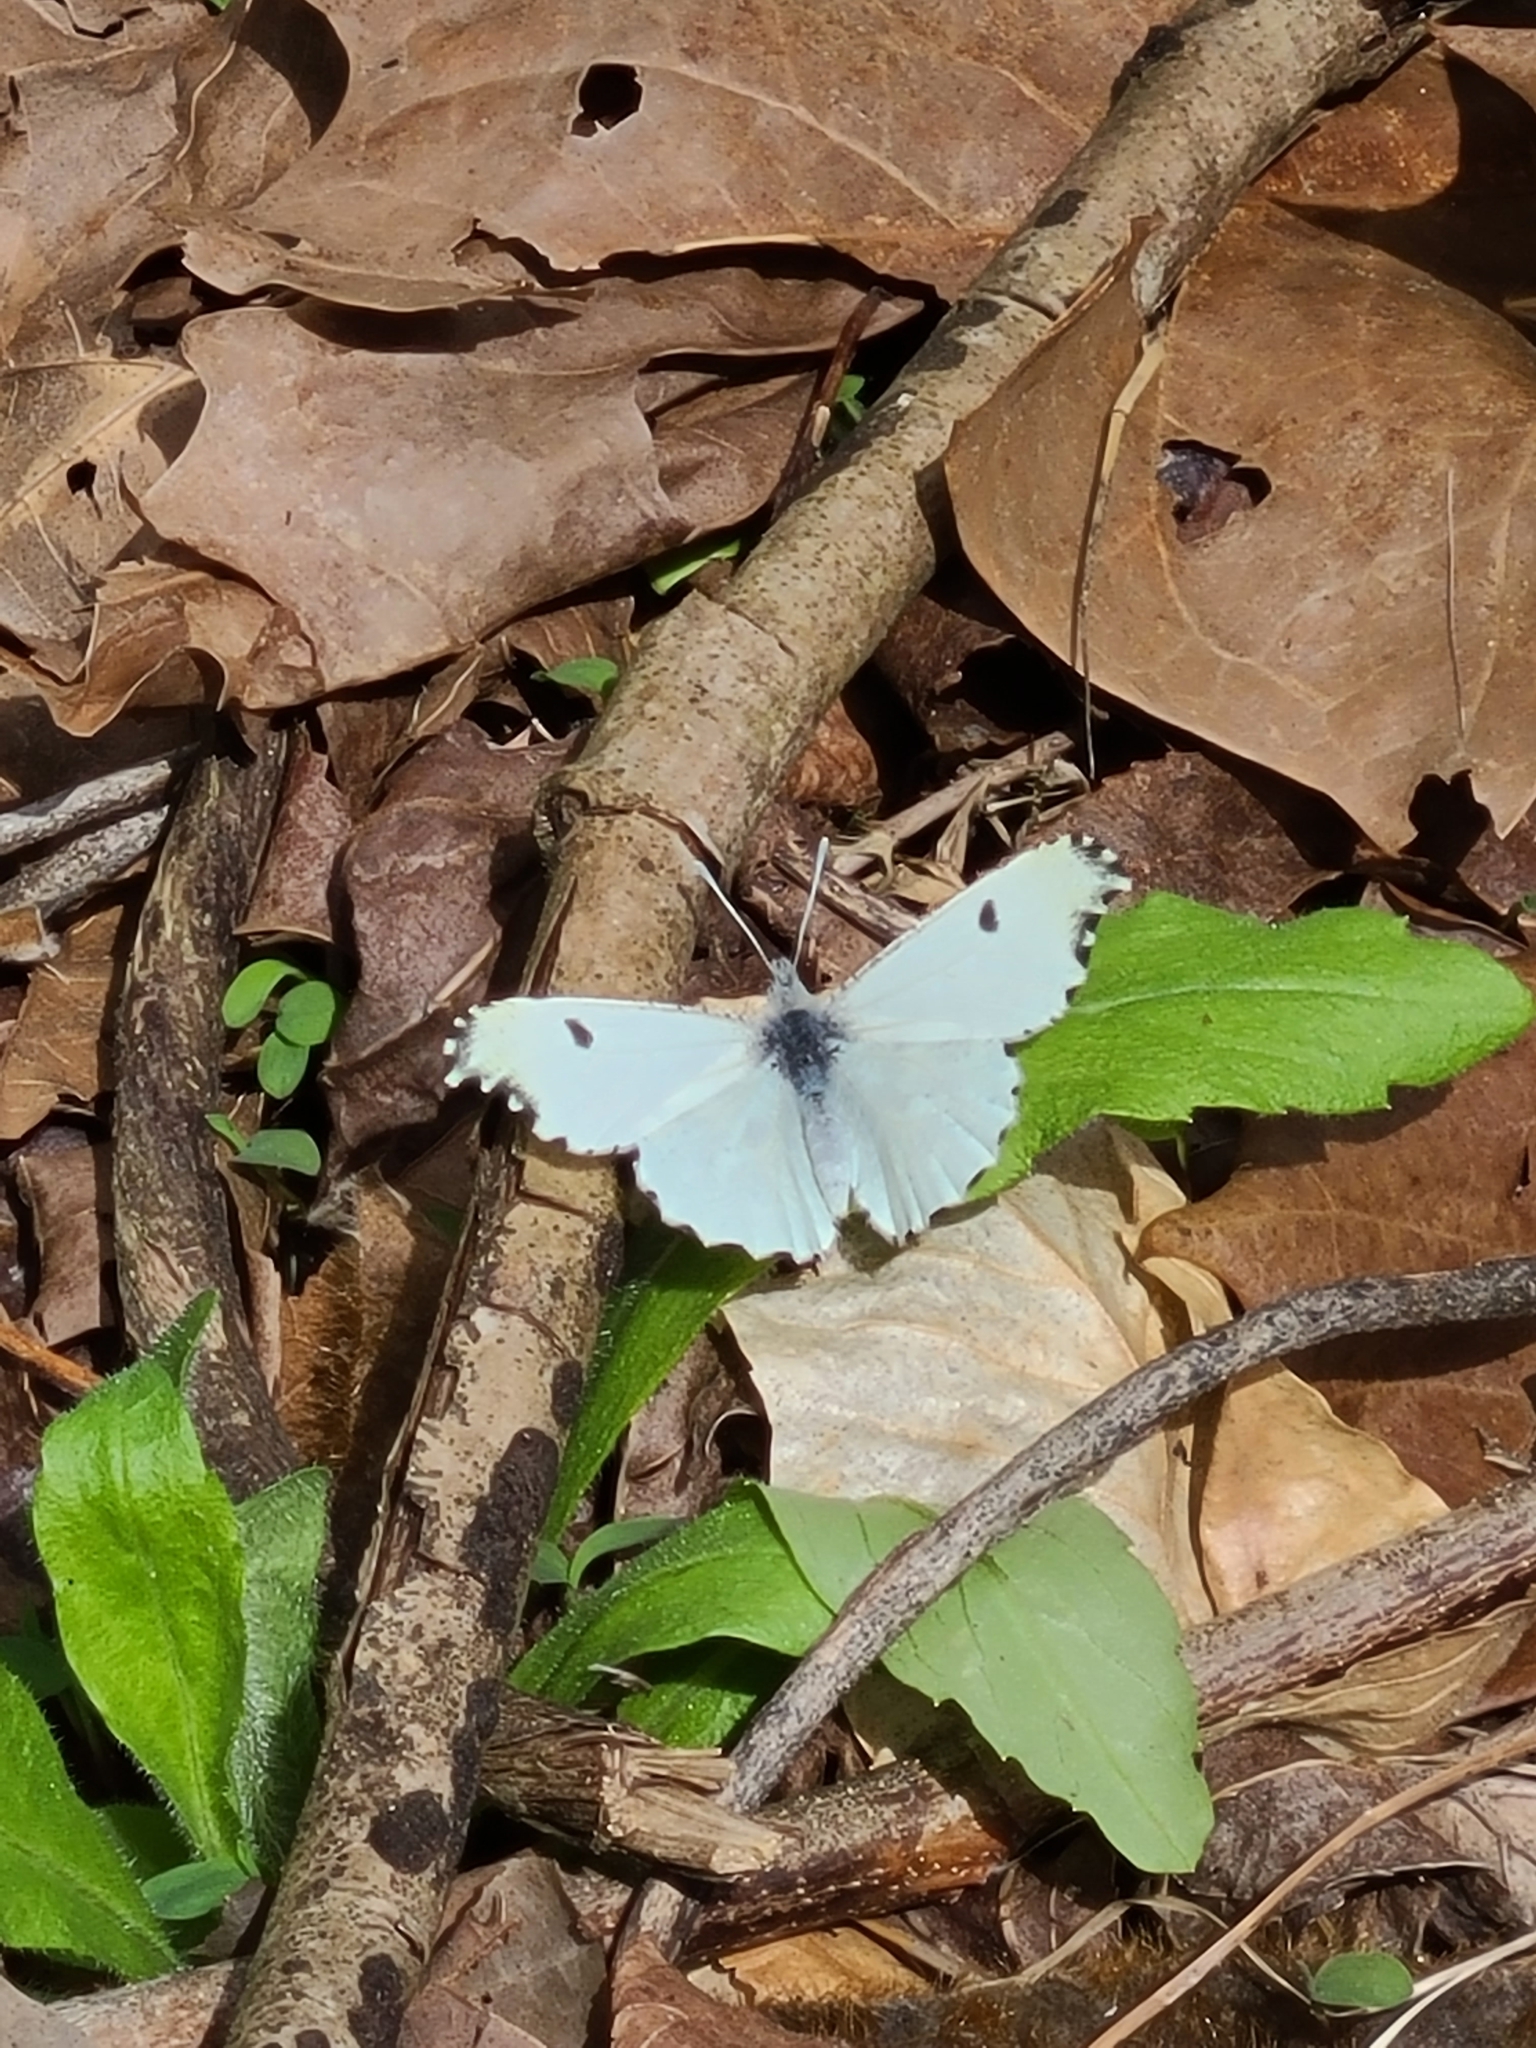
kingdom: Animalia
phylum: Arthropoda
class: Insecta
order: Lepidoptera
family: Pieridae
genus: Anthocharis
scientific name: Anthocharis midea
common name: Falcate orangetip
